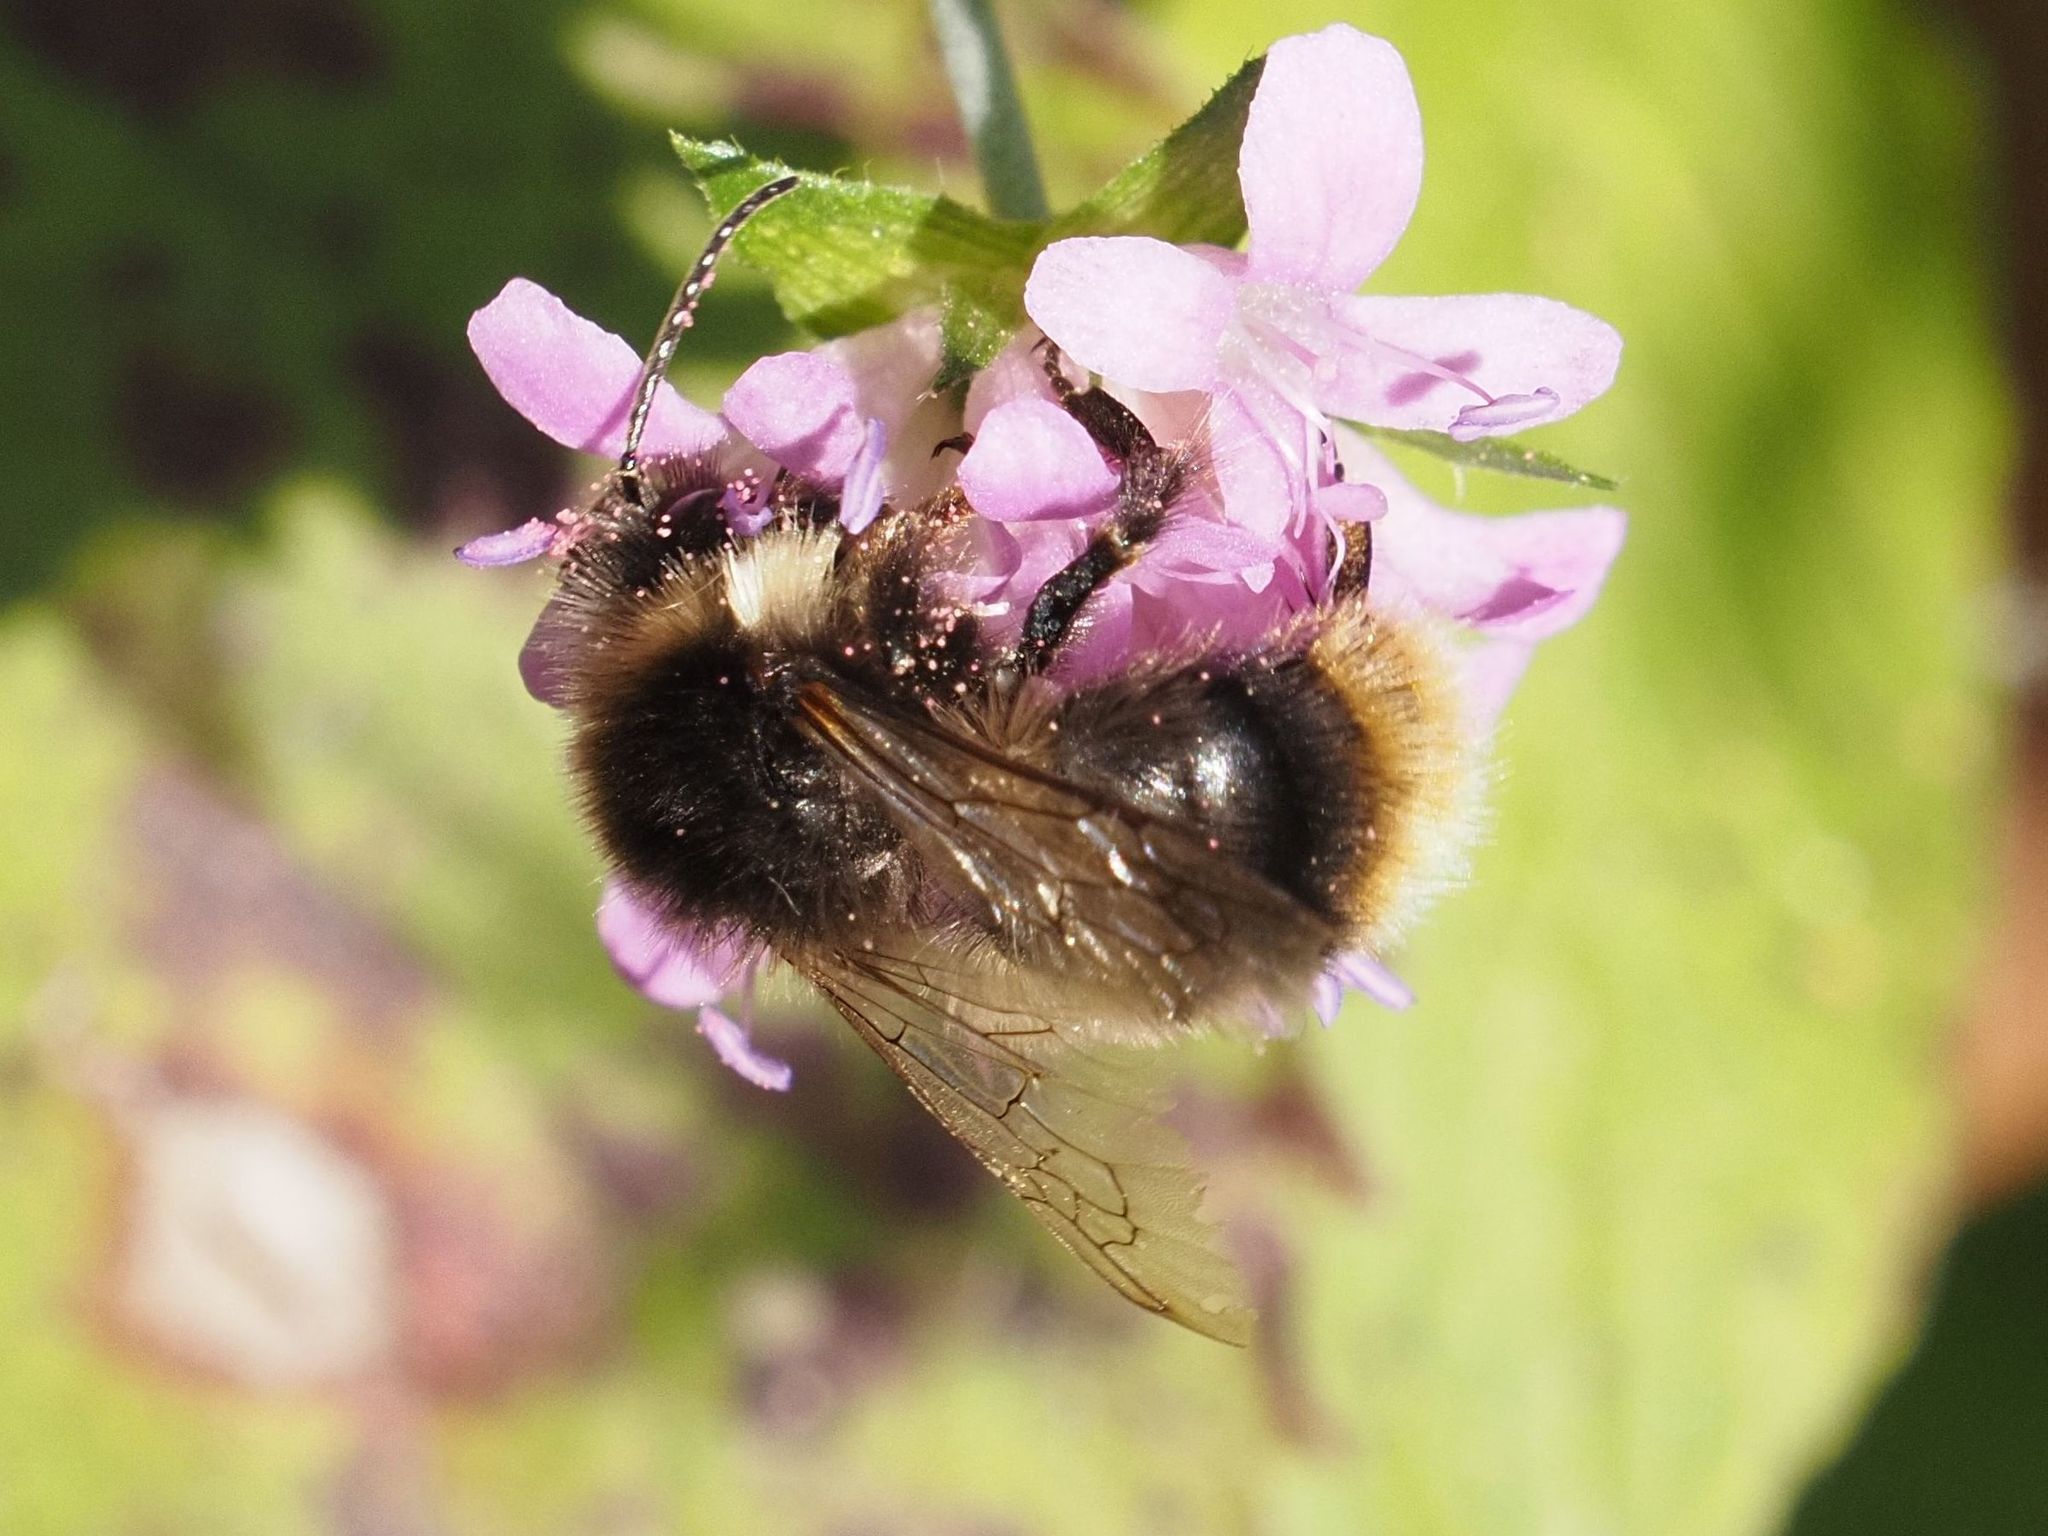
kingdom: Animalia
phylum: Arthropoda
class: Insecta
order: Hymenoptera
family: Apidae
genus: Bombus
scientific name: Bombus soroeensis
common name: Broken-belted humble-bee
